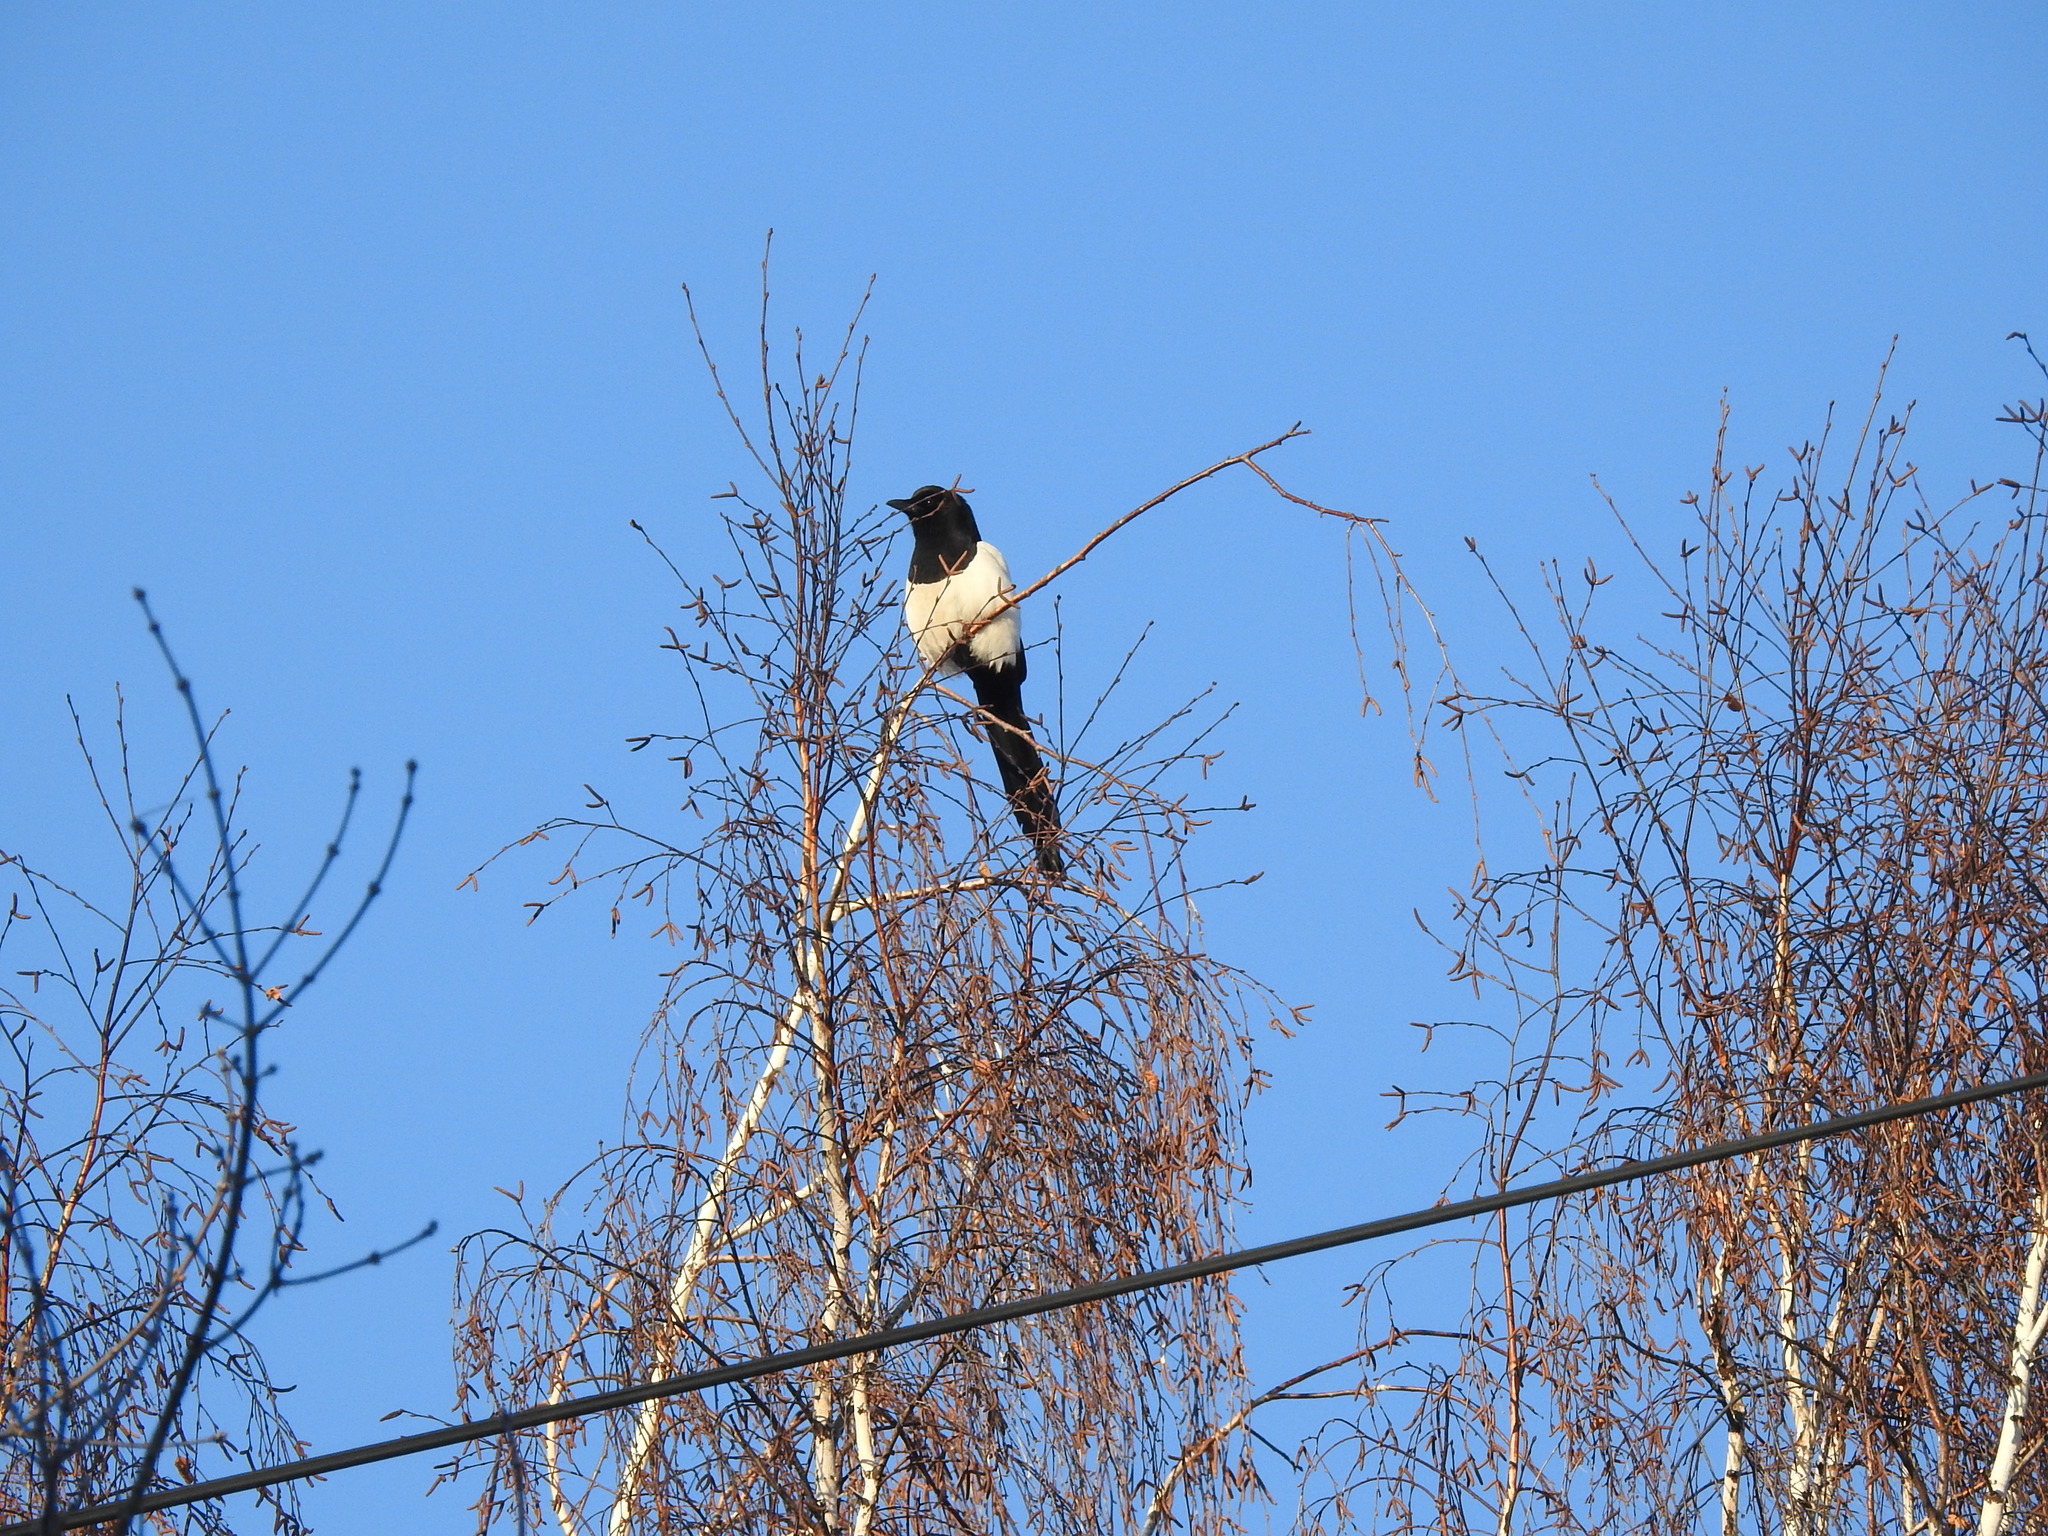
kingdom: Animalia
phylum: Chordata
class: Aves
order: Passeriformes
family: Corvidae
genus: Pica
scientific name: Pica pica
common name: Eurasian magpie
